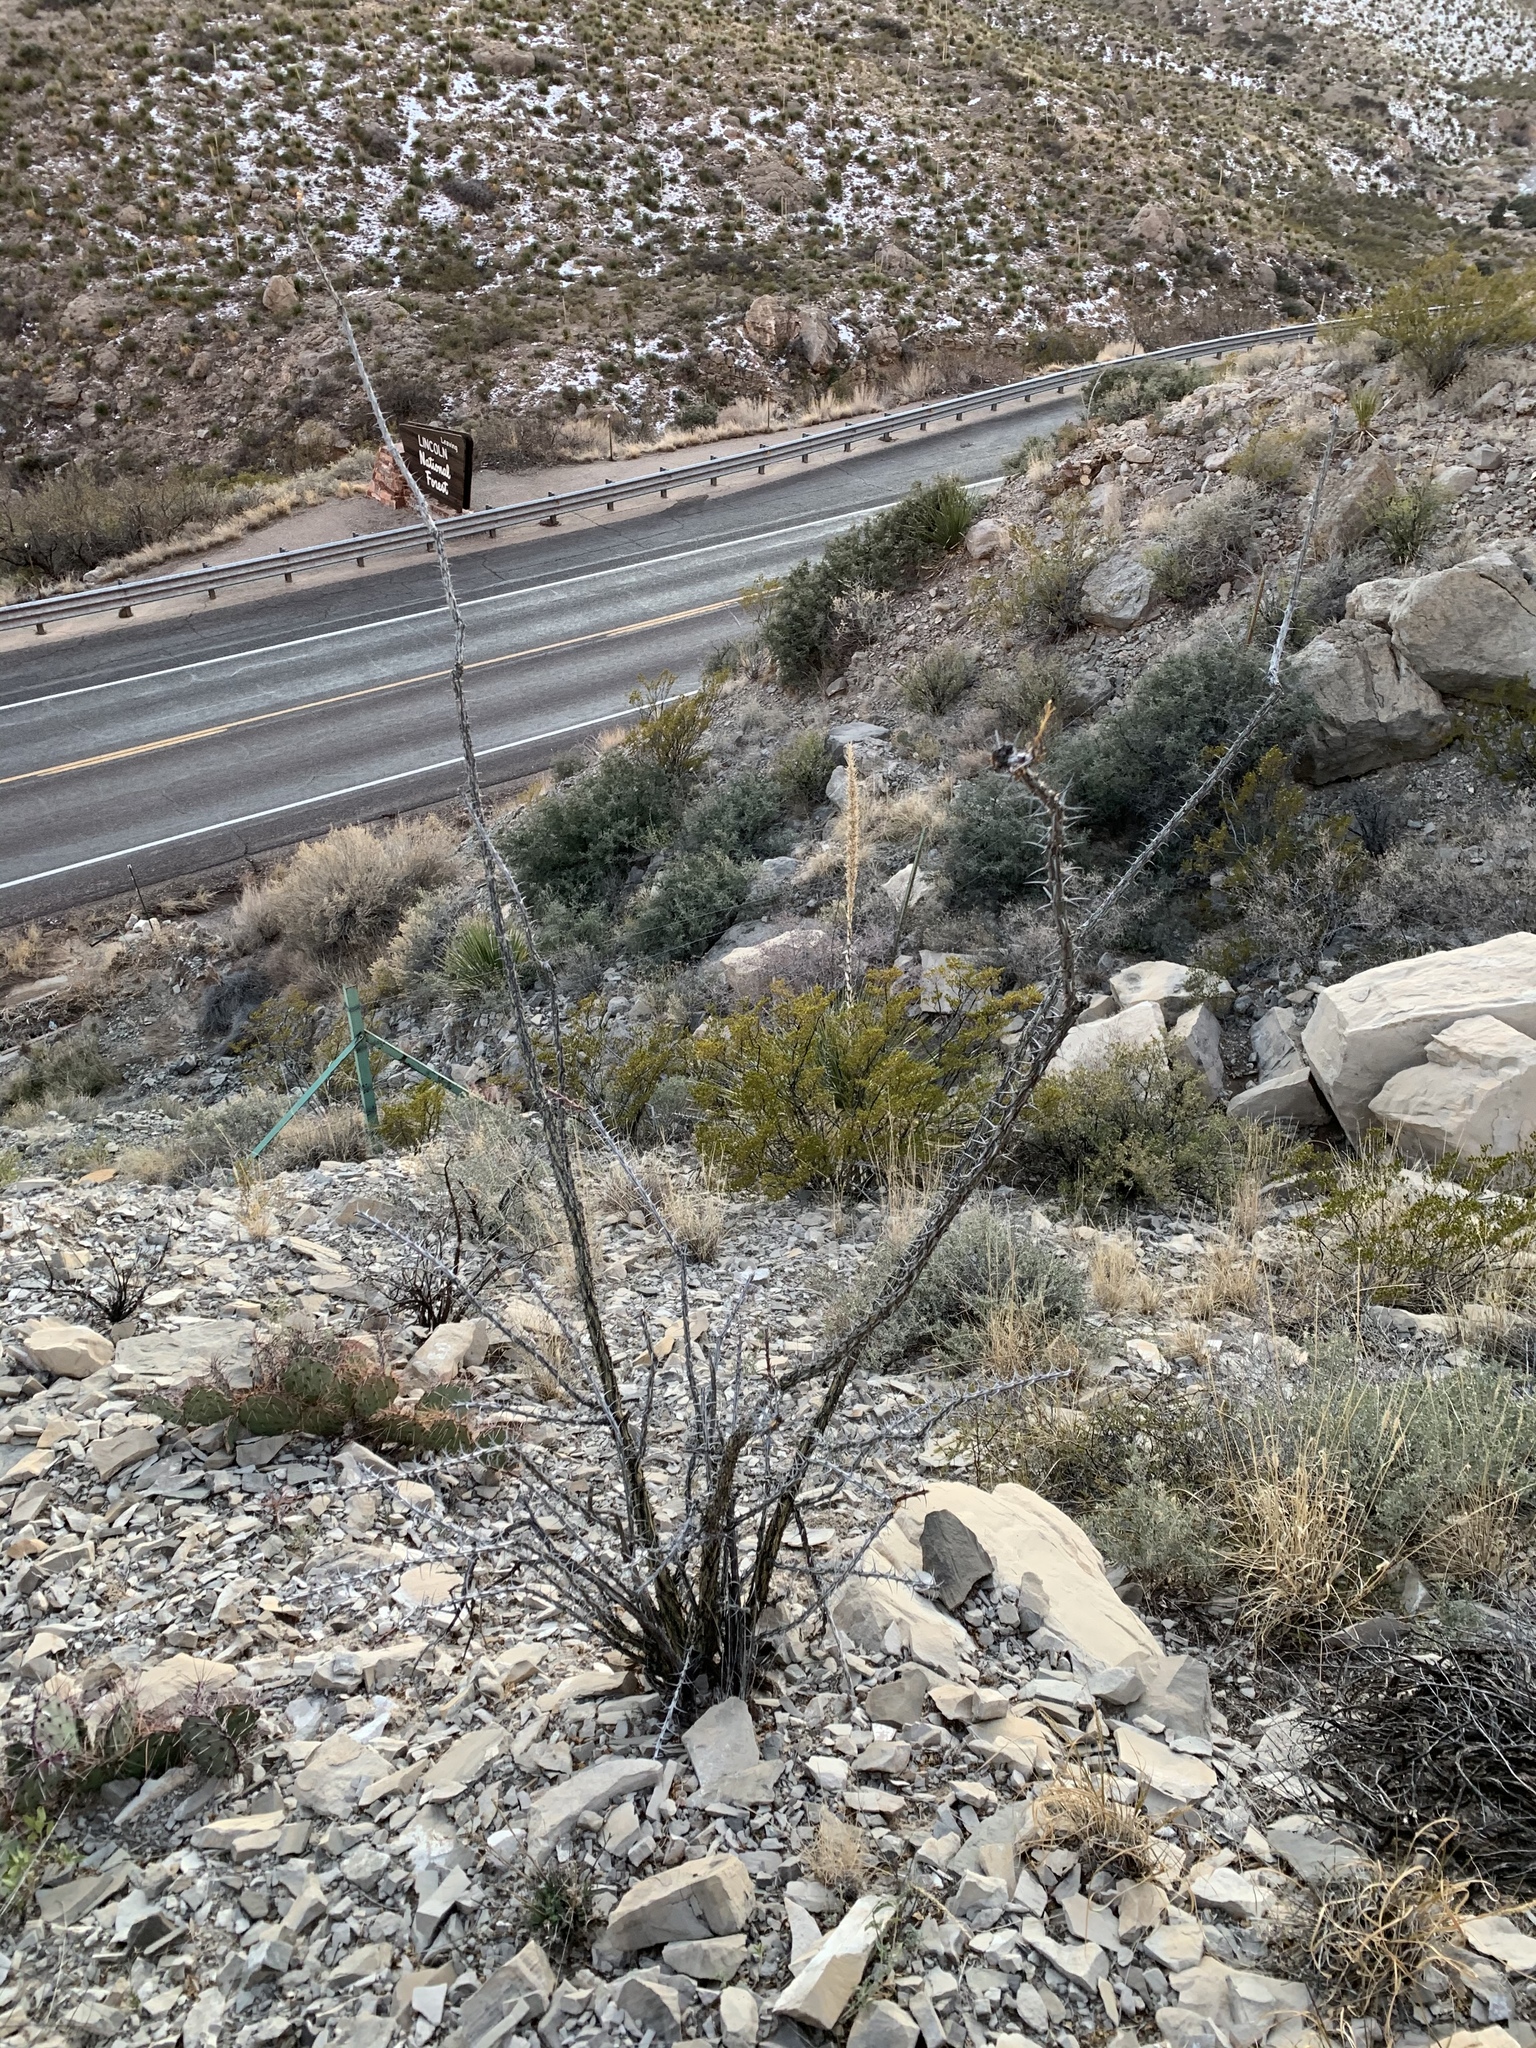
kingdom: Plantae
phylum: Tracheophyta
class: Magnoliopsida
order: Ericales
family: Fouquieriaceae
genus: Fouquieria
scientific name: Fouquieria splendens
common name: Vine-cactus
